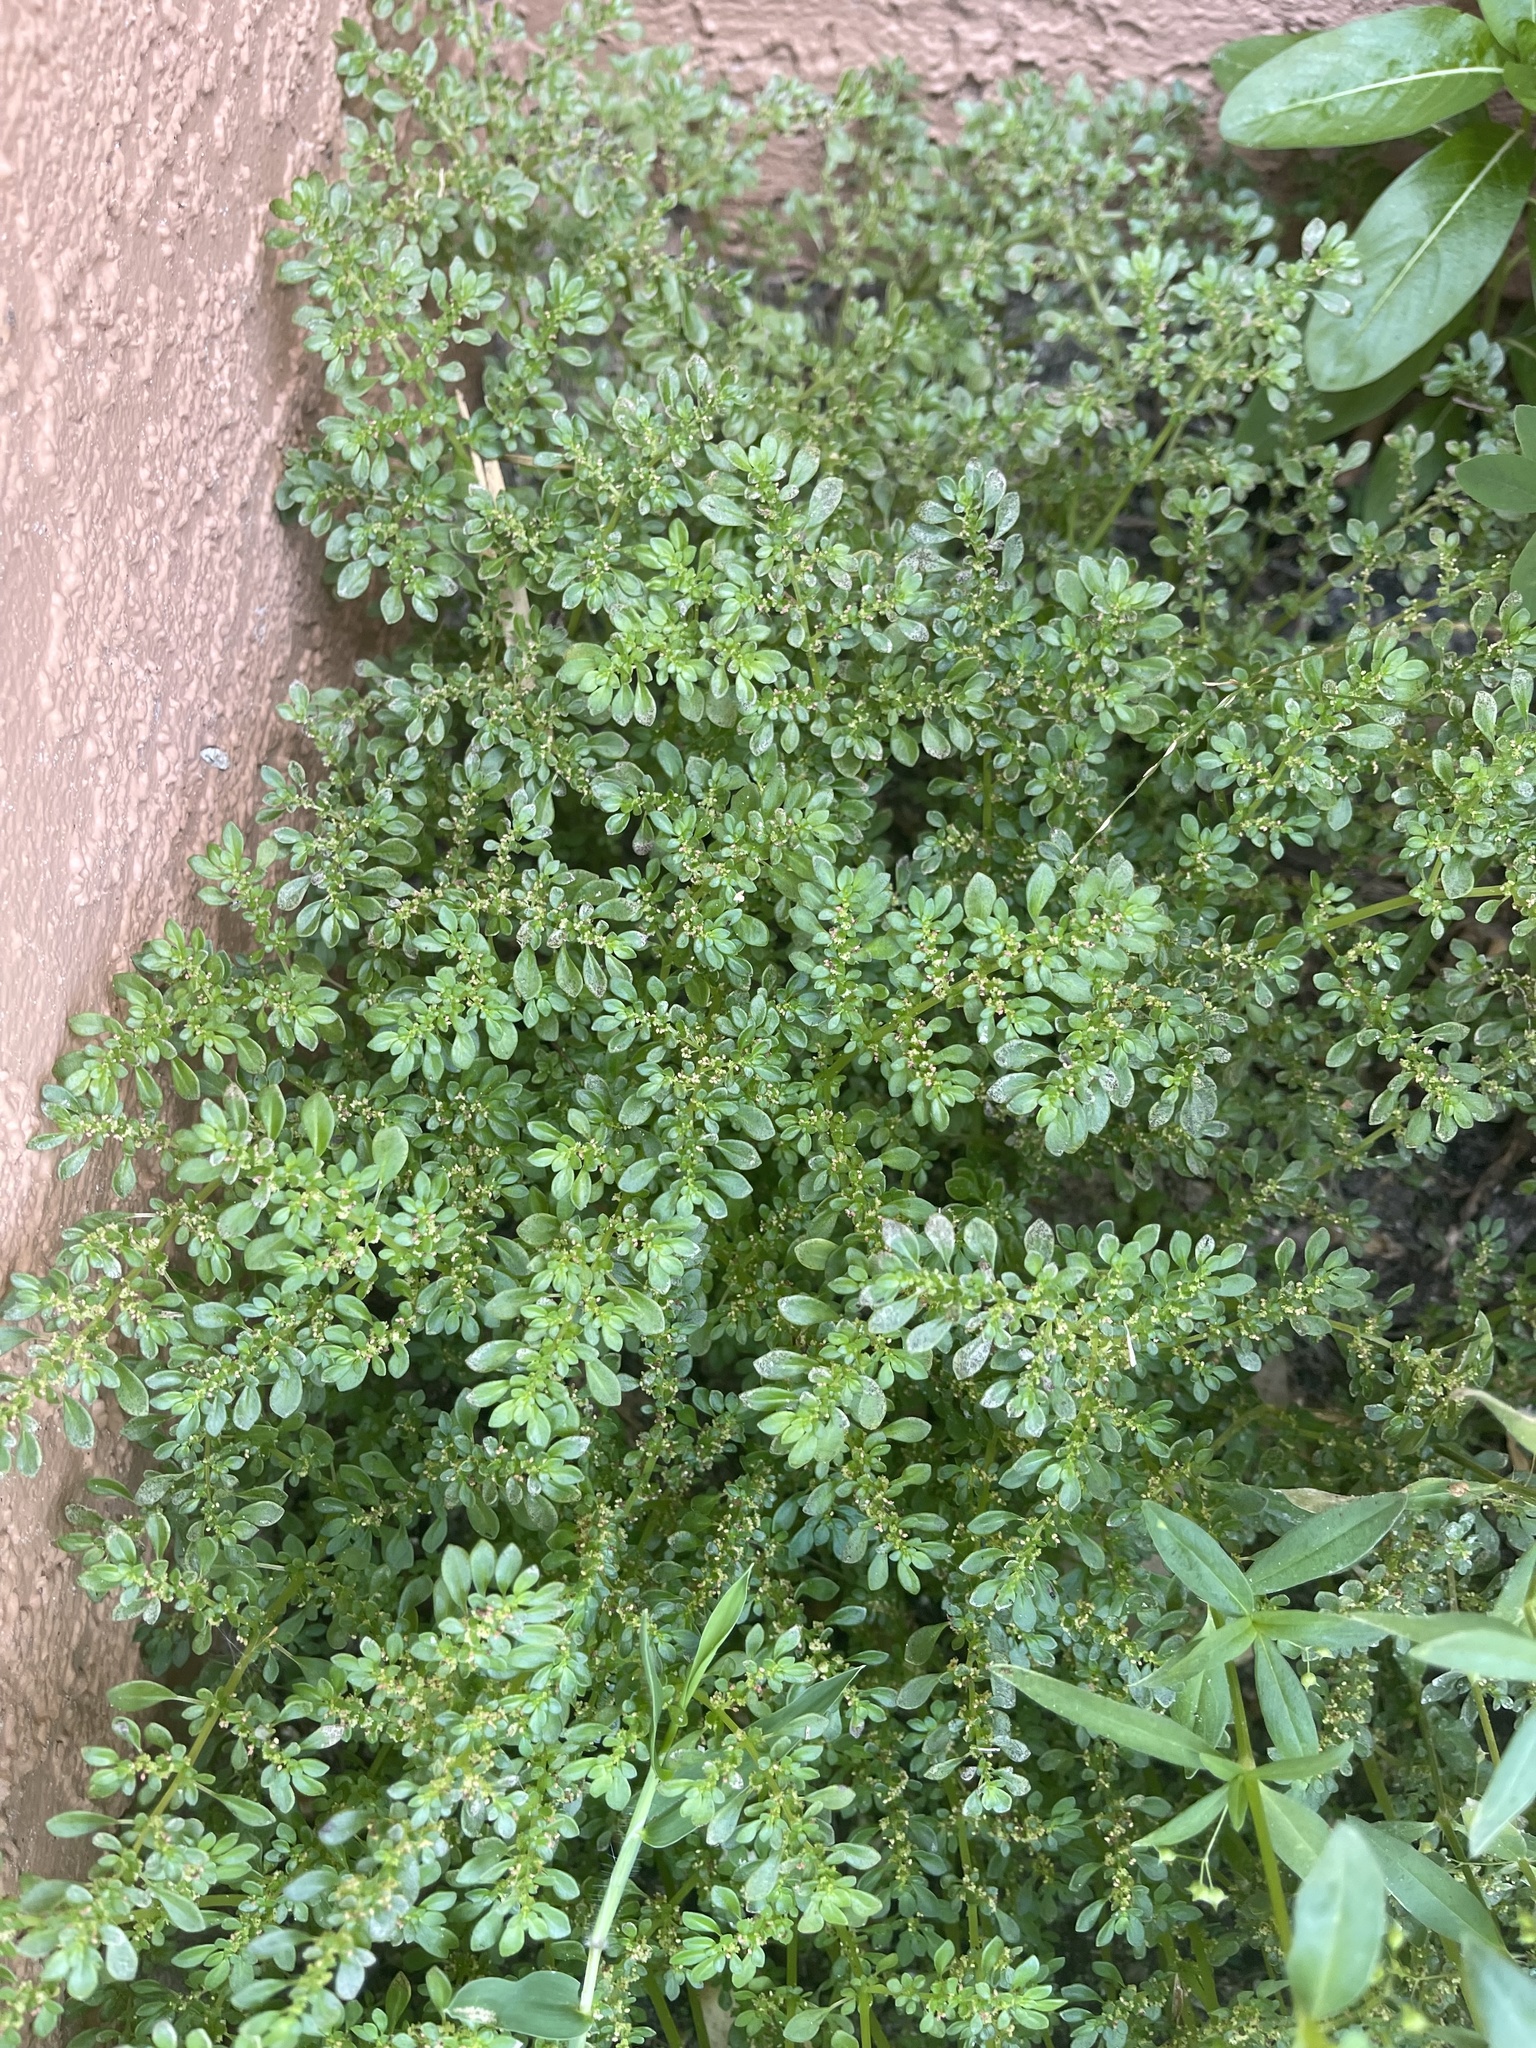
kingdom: Plantae
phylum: Tracheophyta
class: Magnoliopsida
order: Rosales
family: Urticaceae
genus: Pilea
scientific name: Pilea microphylla
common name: Artillery-plant
